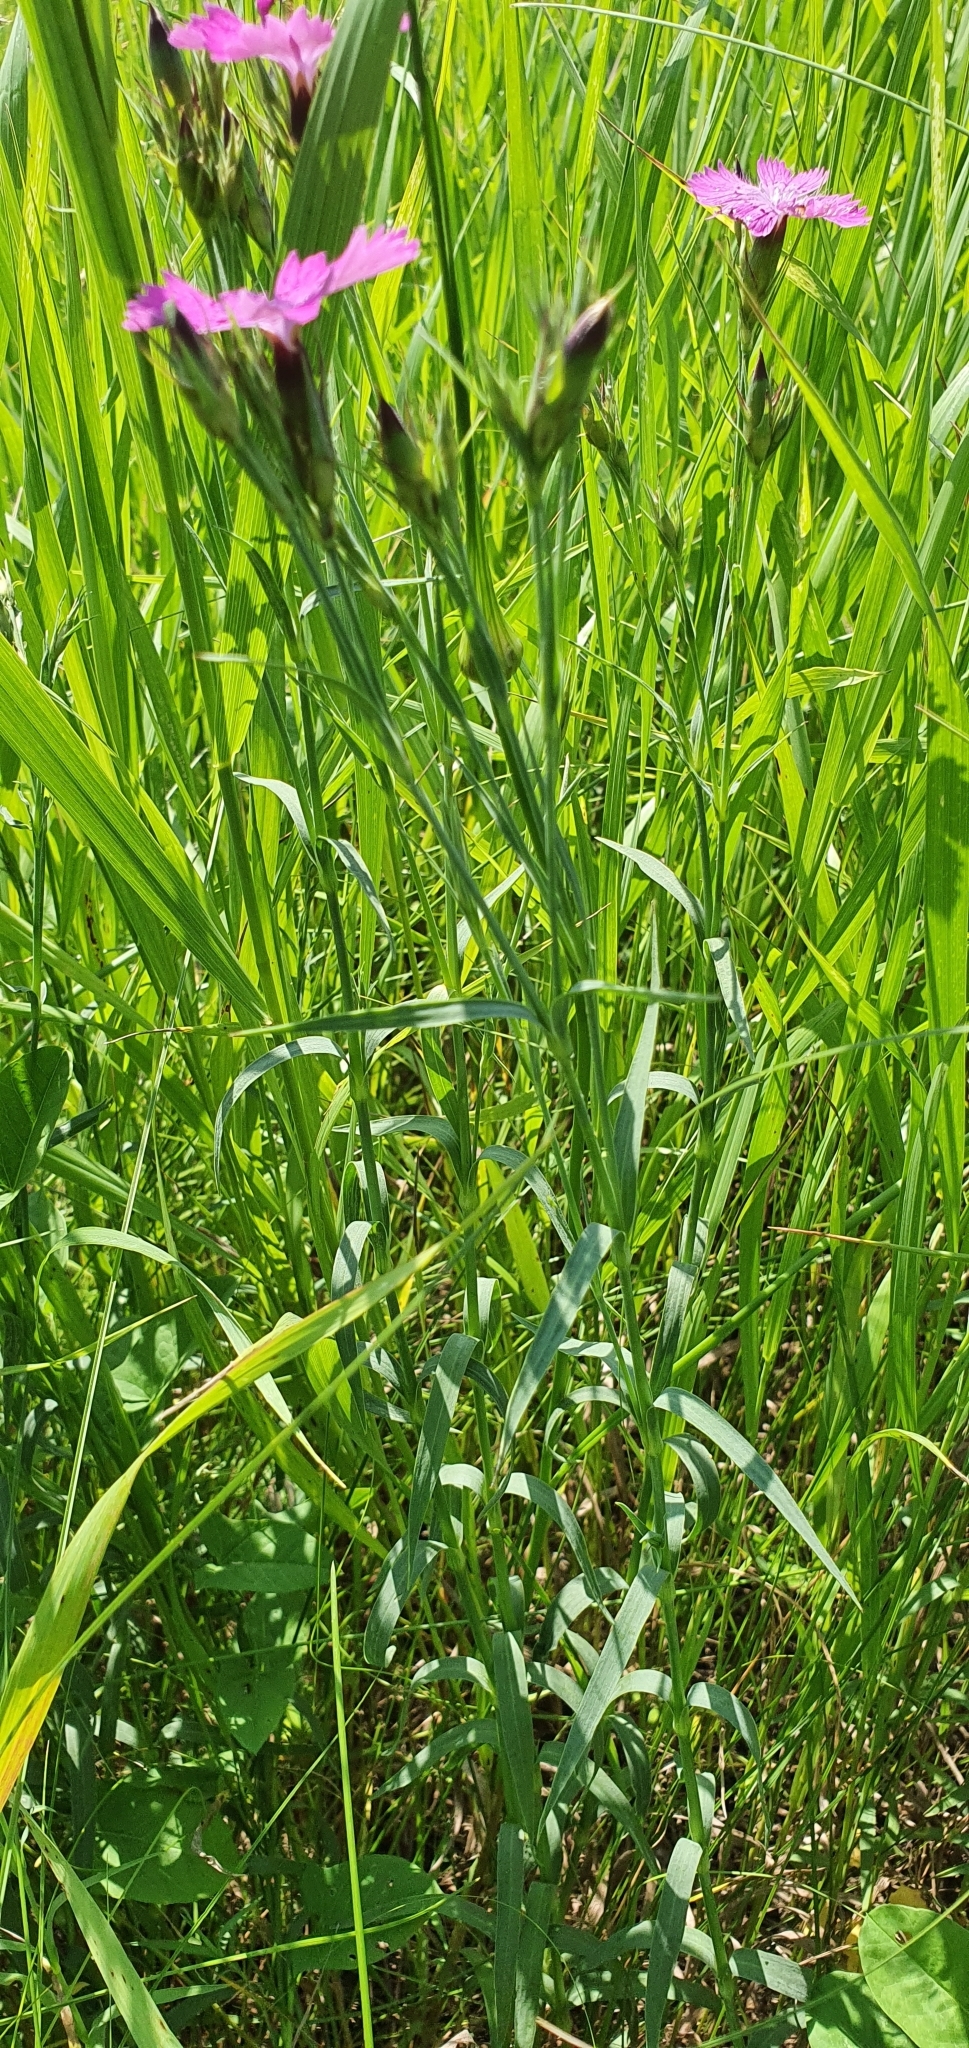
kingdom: Plantae
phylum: Tracheophyta
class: Magnoliopsida
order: Caryophyllales
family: Caryophyllaceae
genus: Dianthus
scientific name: Dianthus chinensis
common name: Rainbow pink
